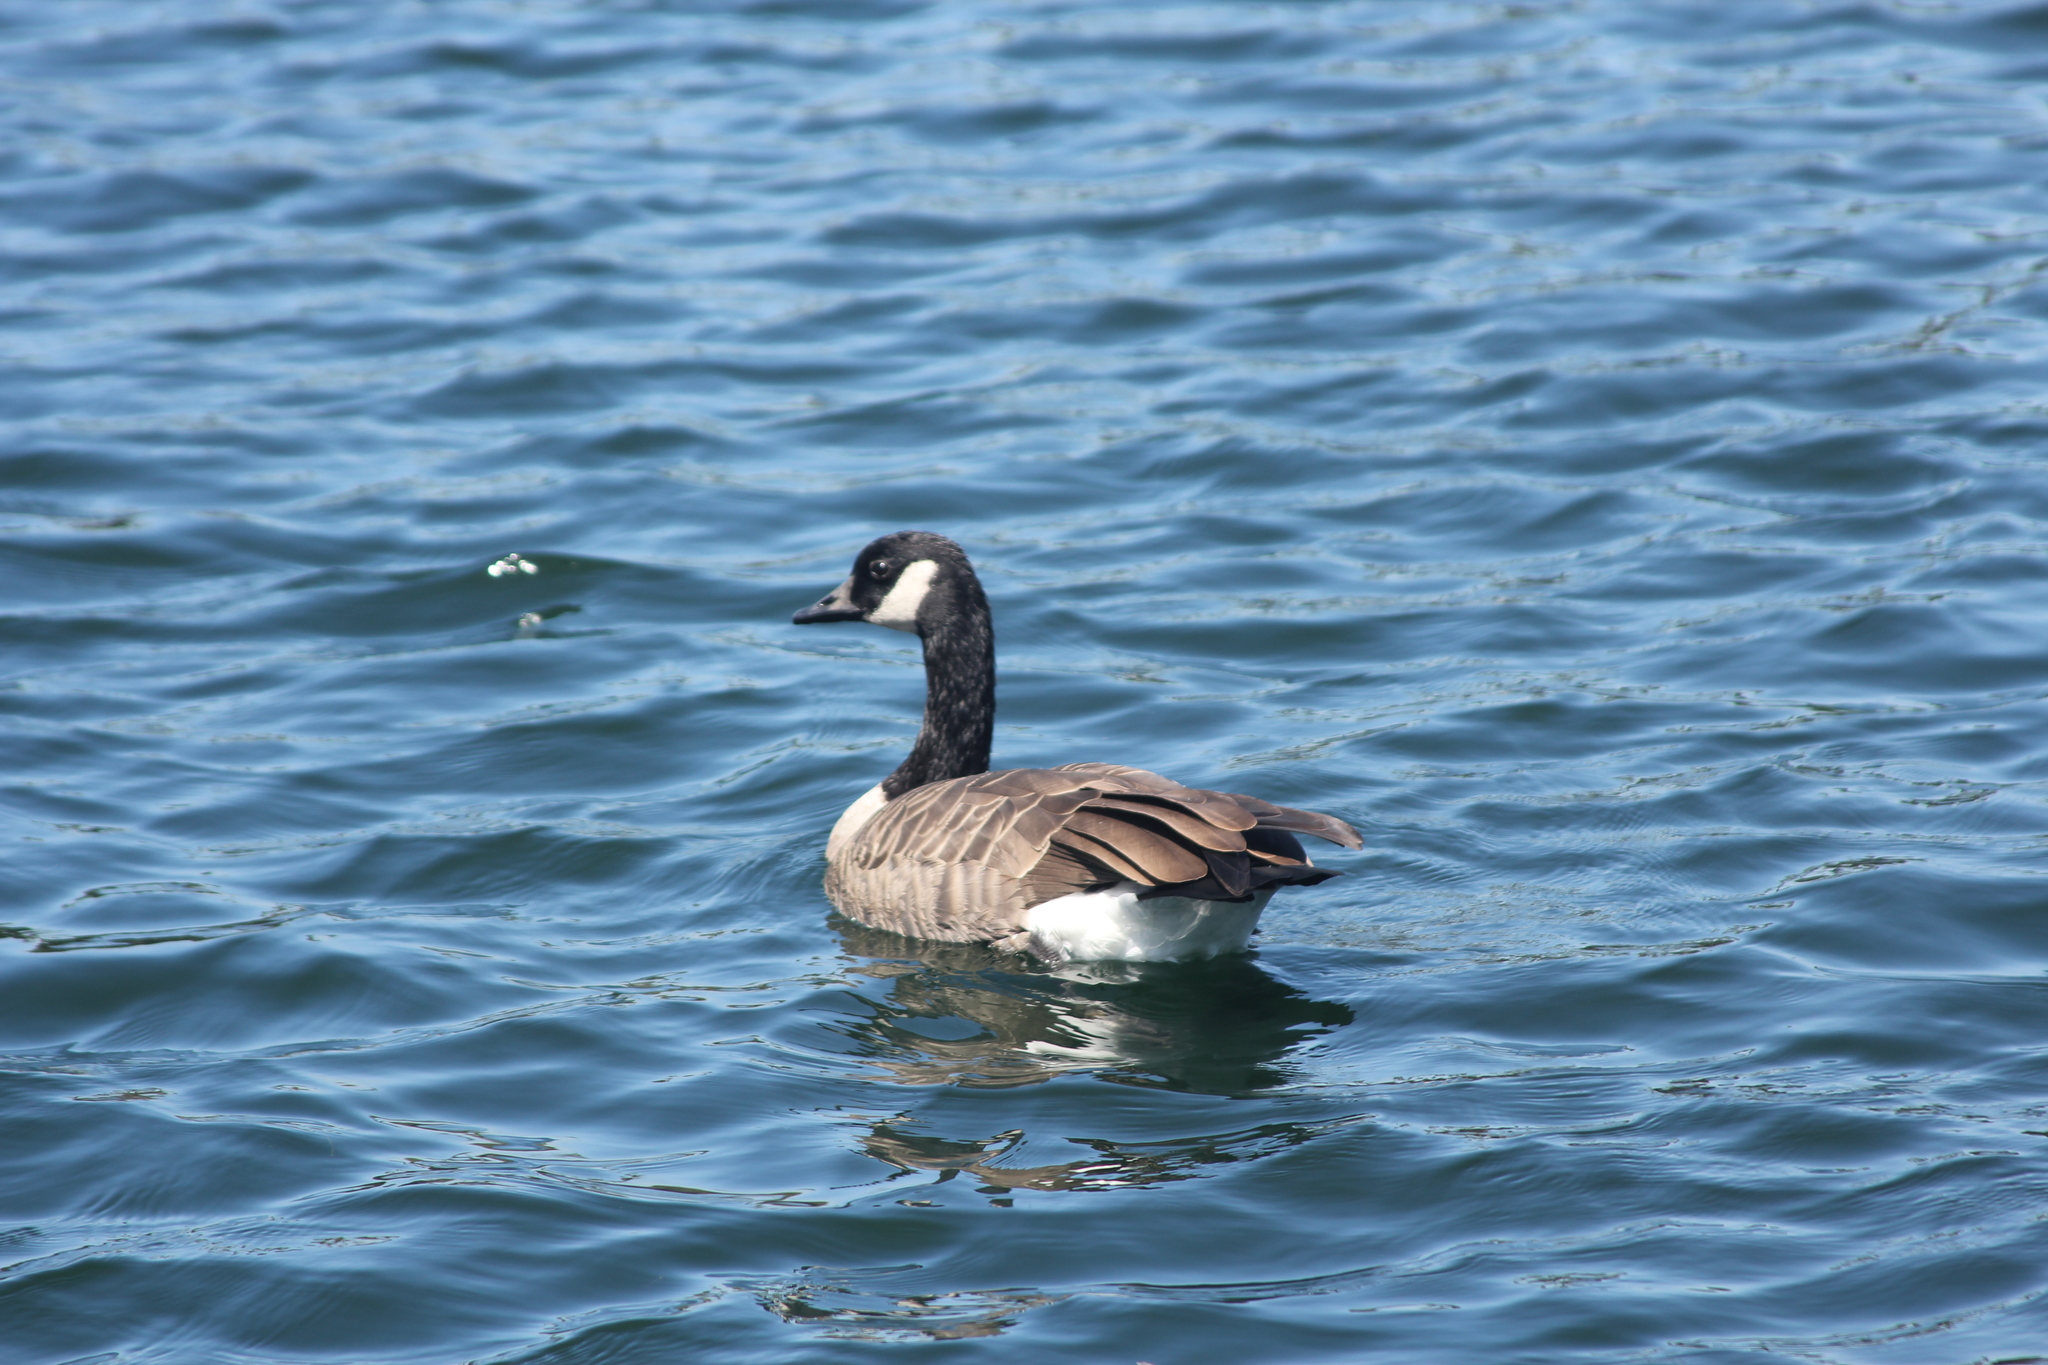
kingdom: Animalia
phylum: Chordata
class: Aves
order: Anseriformes
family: Anatidae
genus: Branta
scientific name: Branta canadensis
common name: Canada goose
